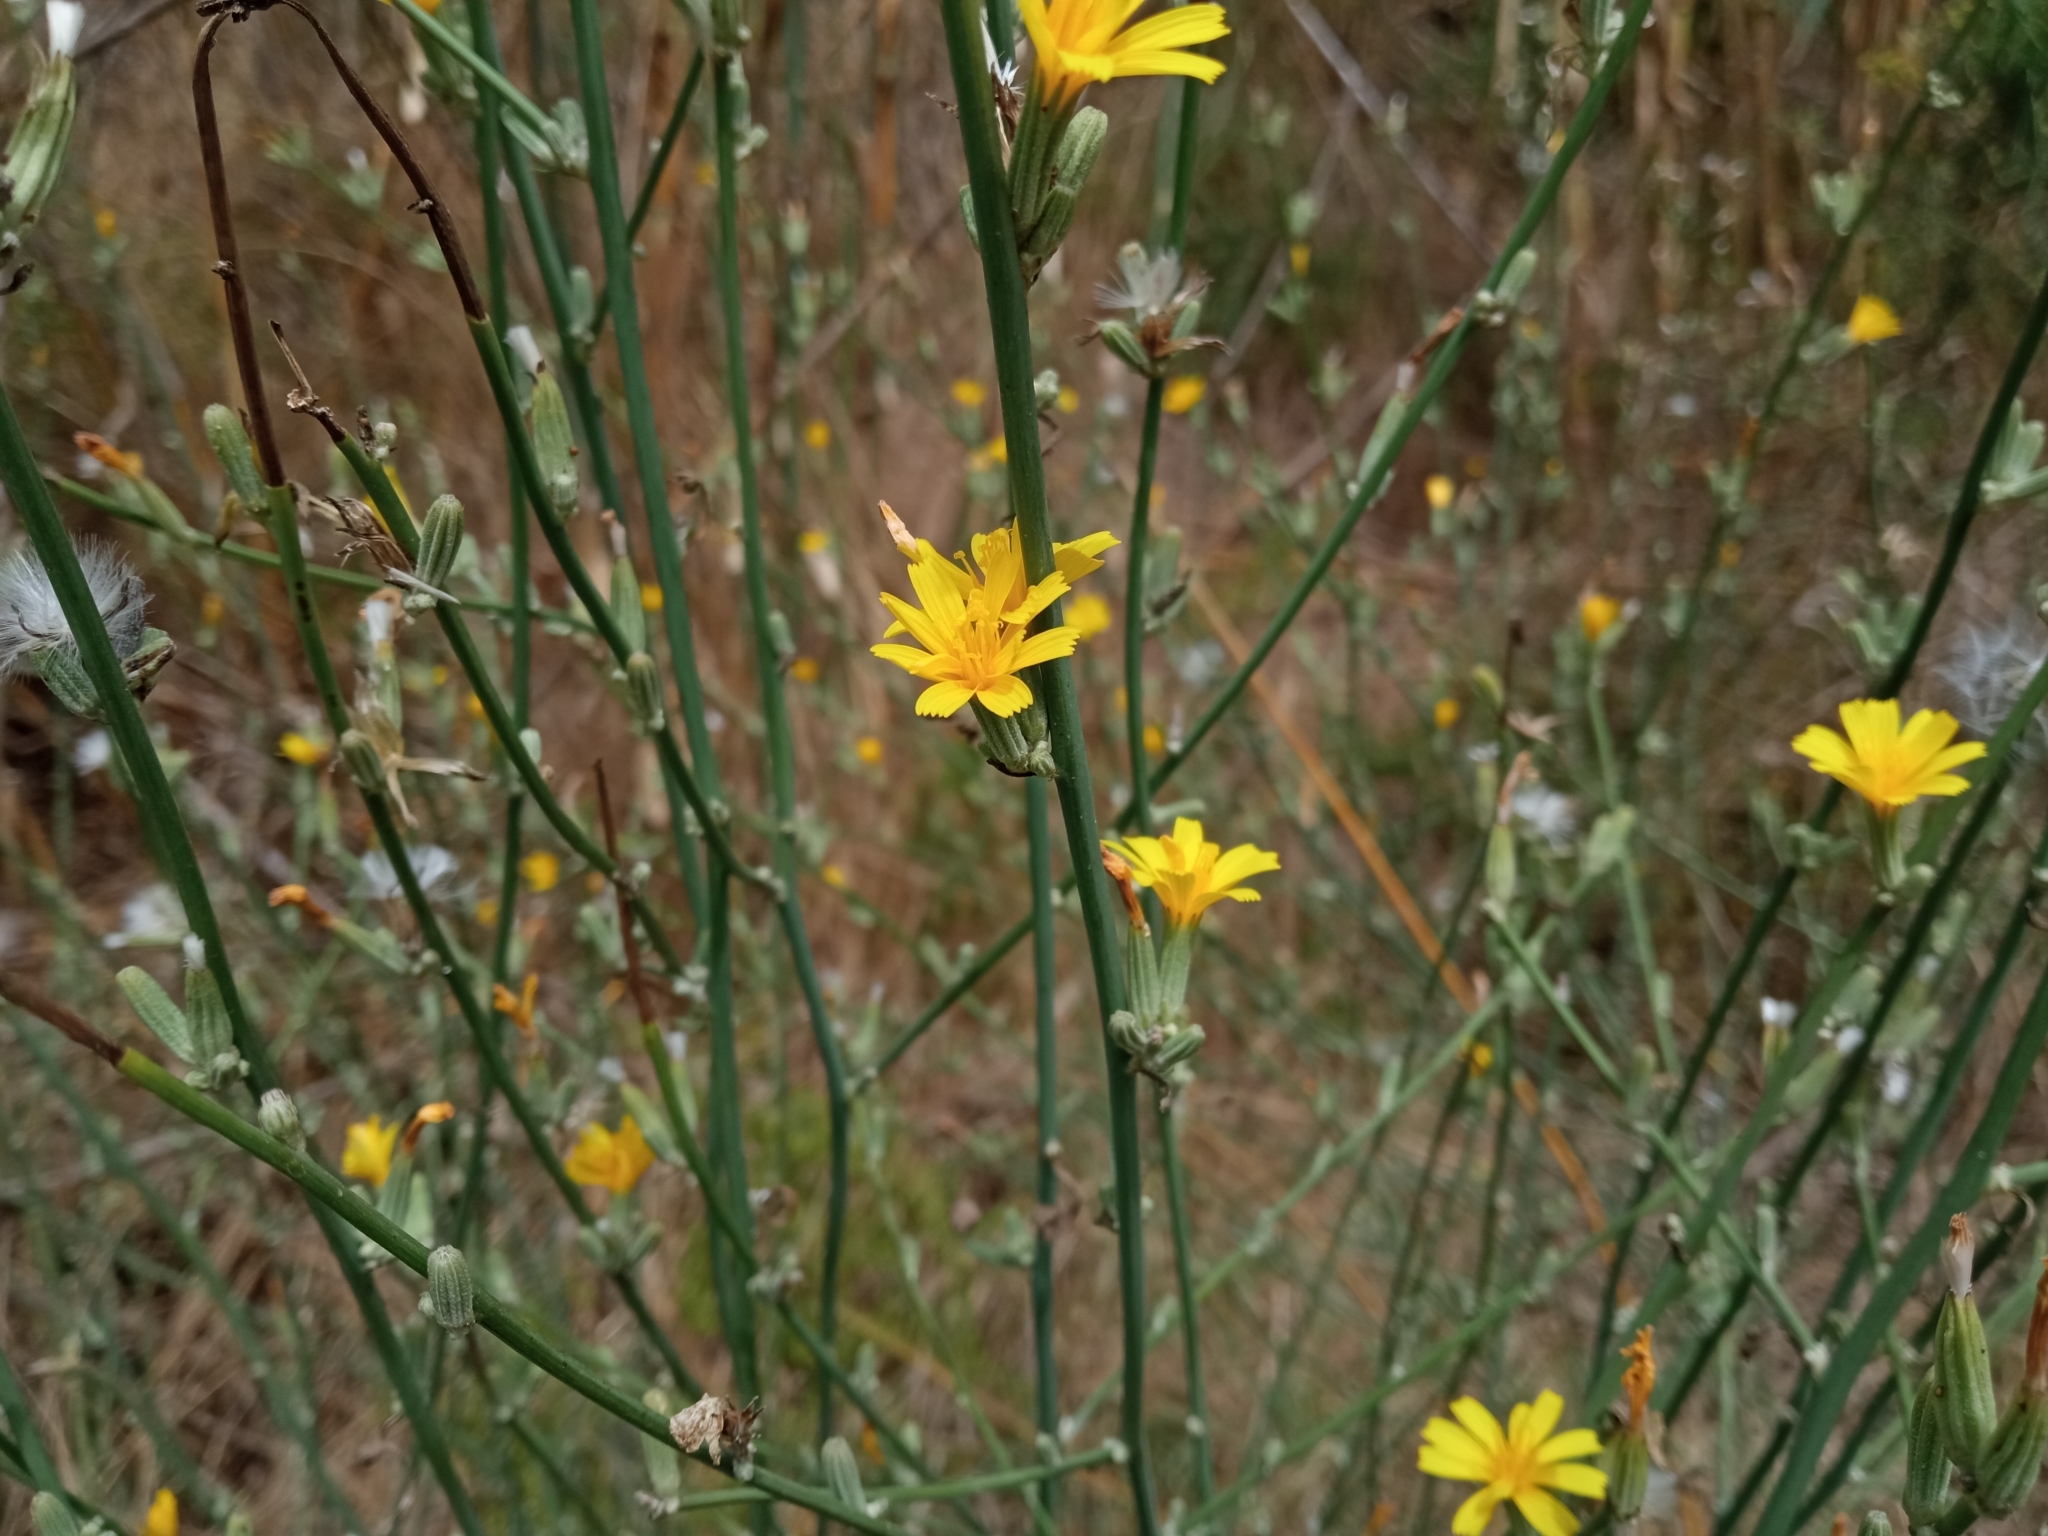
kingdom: Plantae
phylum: Tracheophyta
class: Magnoliopsida
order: Asterales
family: Asteraceae
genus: Chondrilla
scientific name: Chondrilla juncea
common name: Skeleton weed
